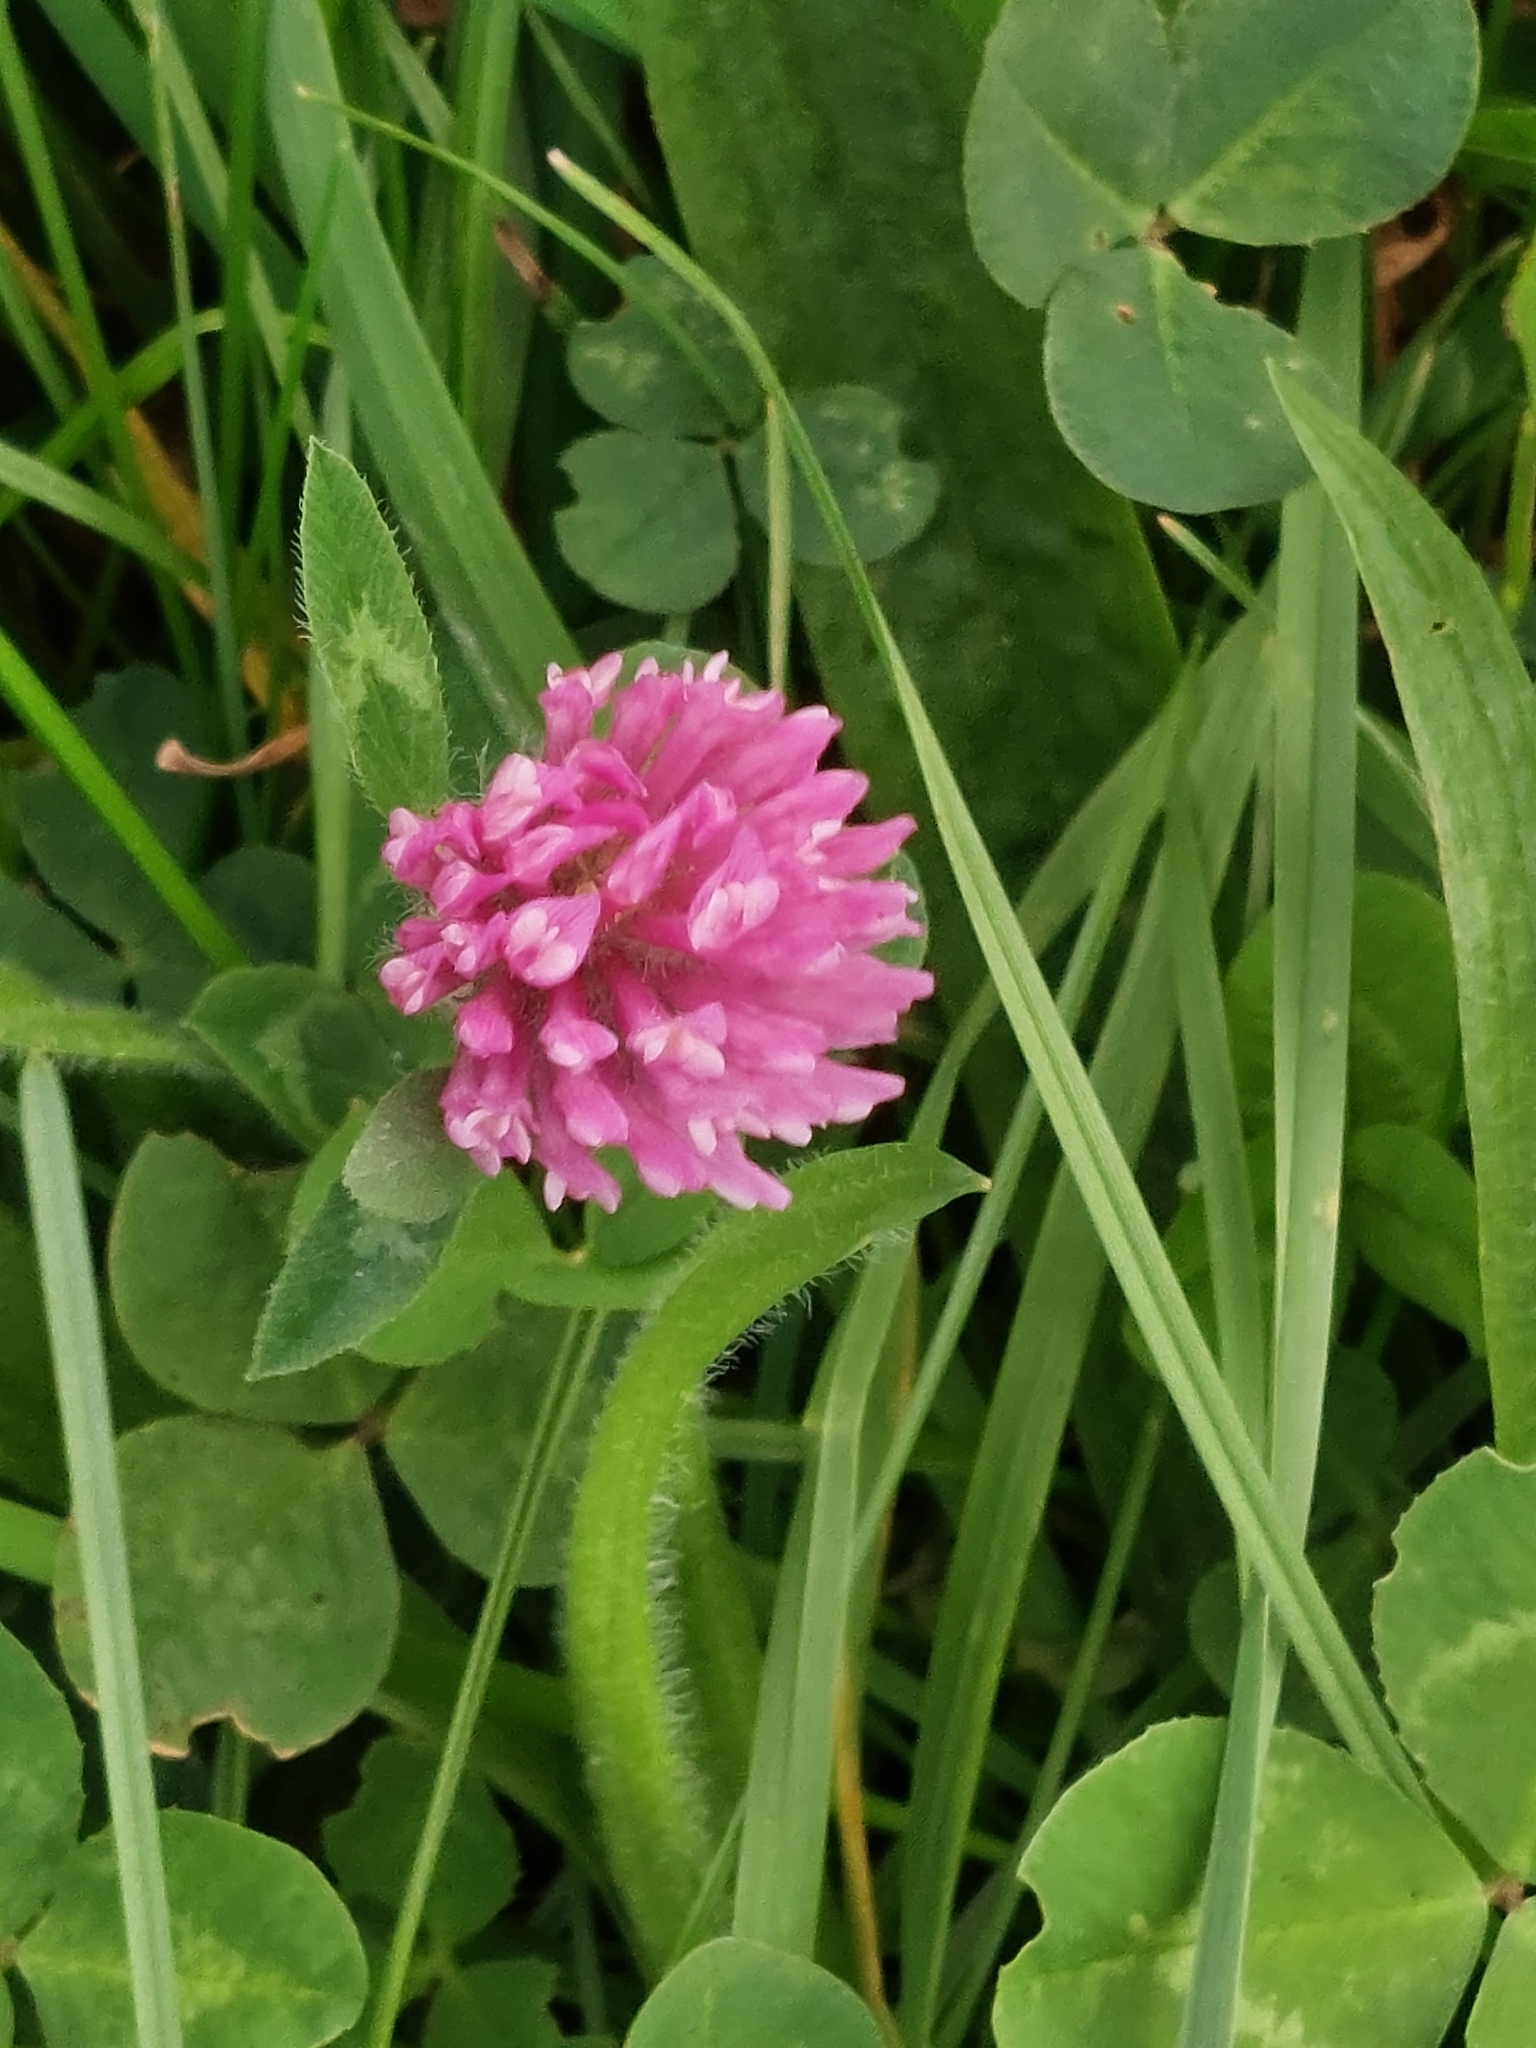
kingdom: Plantae
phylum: Tracheophyta
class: Magnoliopsida
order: Fabales
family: Fabaceae
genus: Trifolium
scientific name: Trifolium pratense
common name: Red clover
